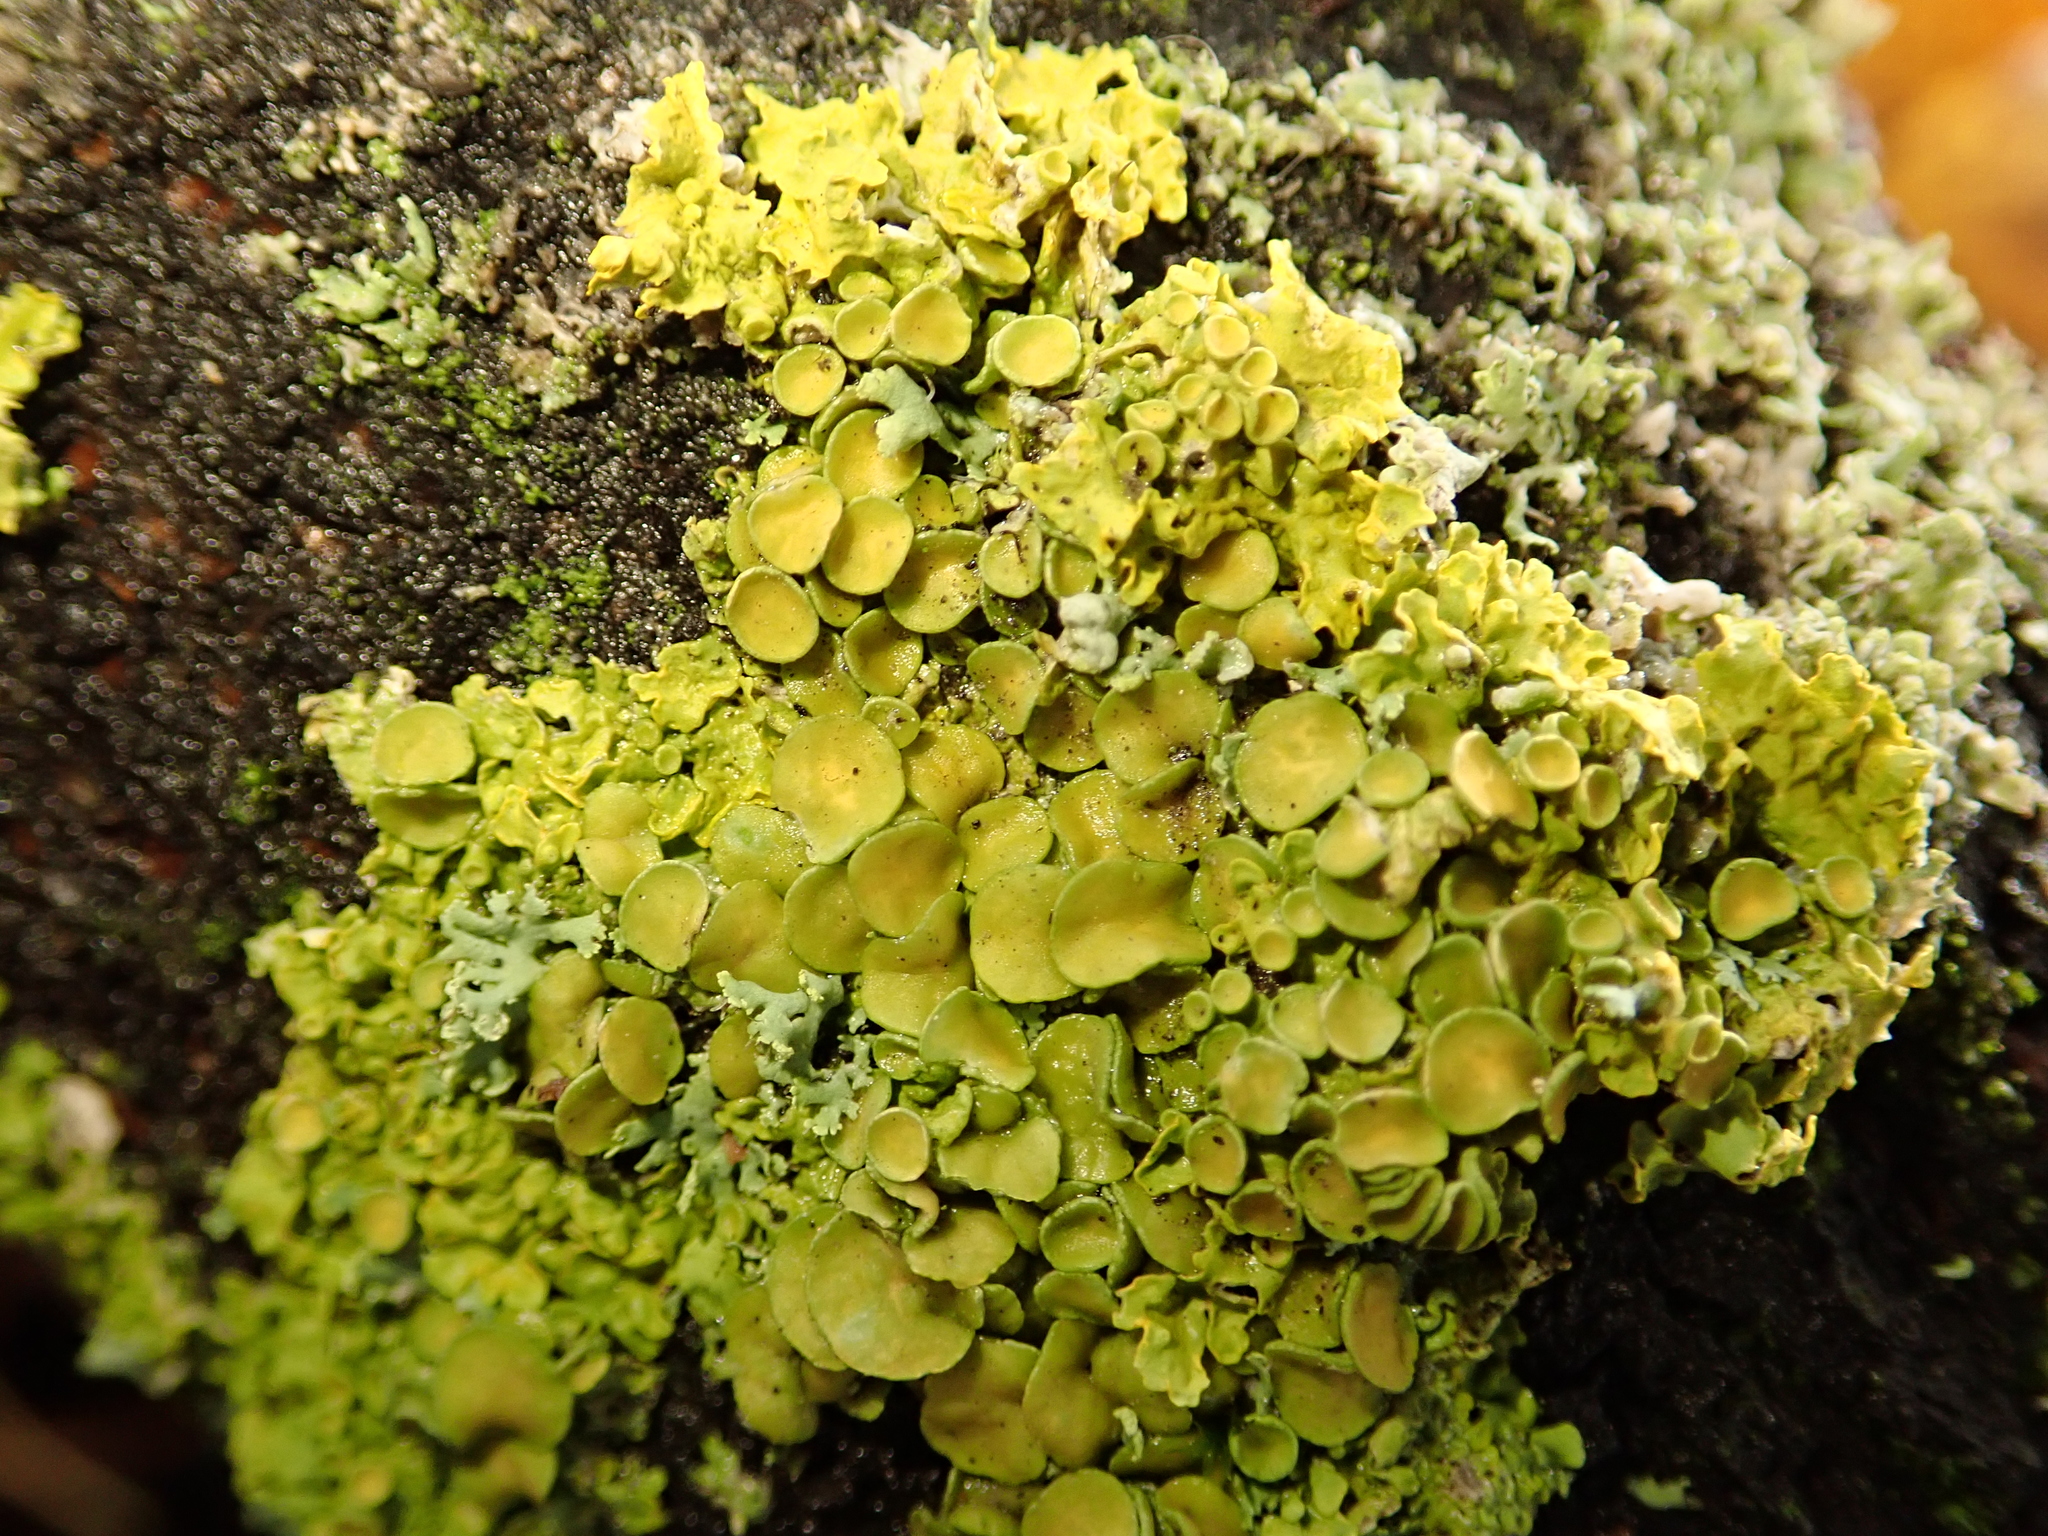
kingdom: Fungi
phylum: Ascomycota
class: Lecanoromycetes
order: Teloschistales
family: Teloschistaceae
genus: Xanthoria
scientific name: Xanthoria parietina
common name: Common orange lichen
